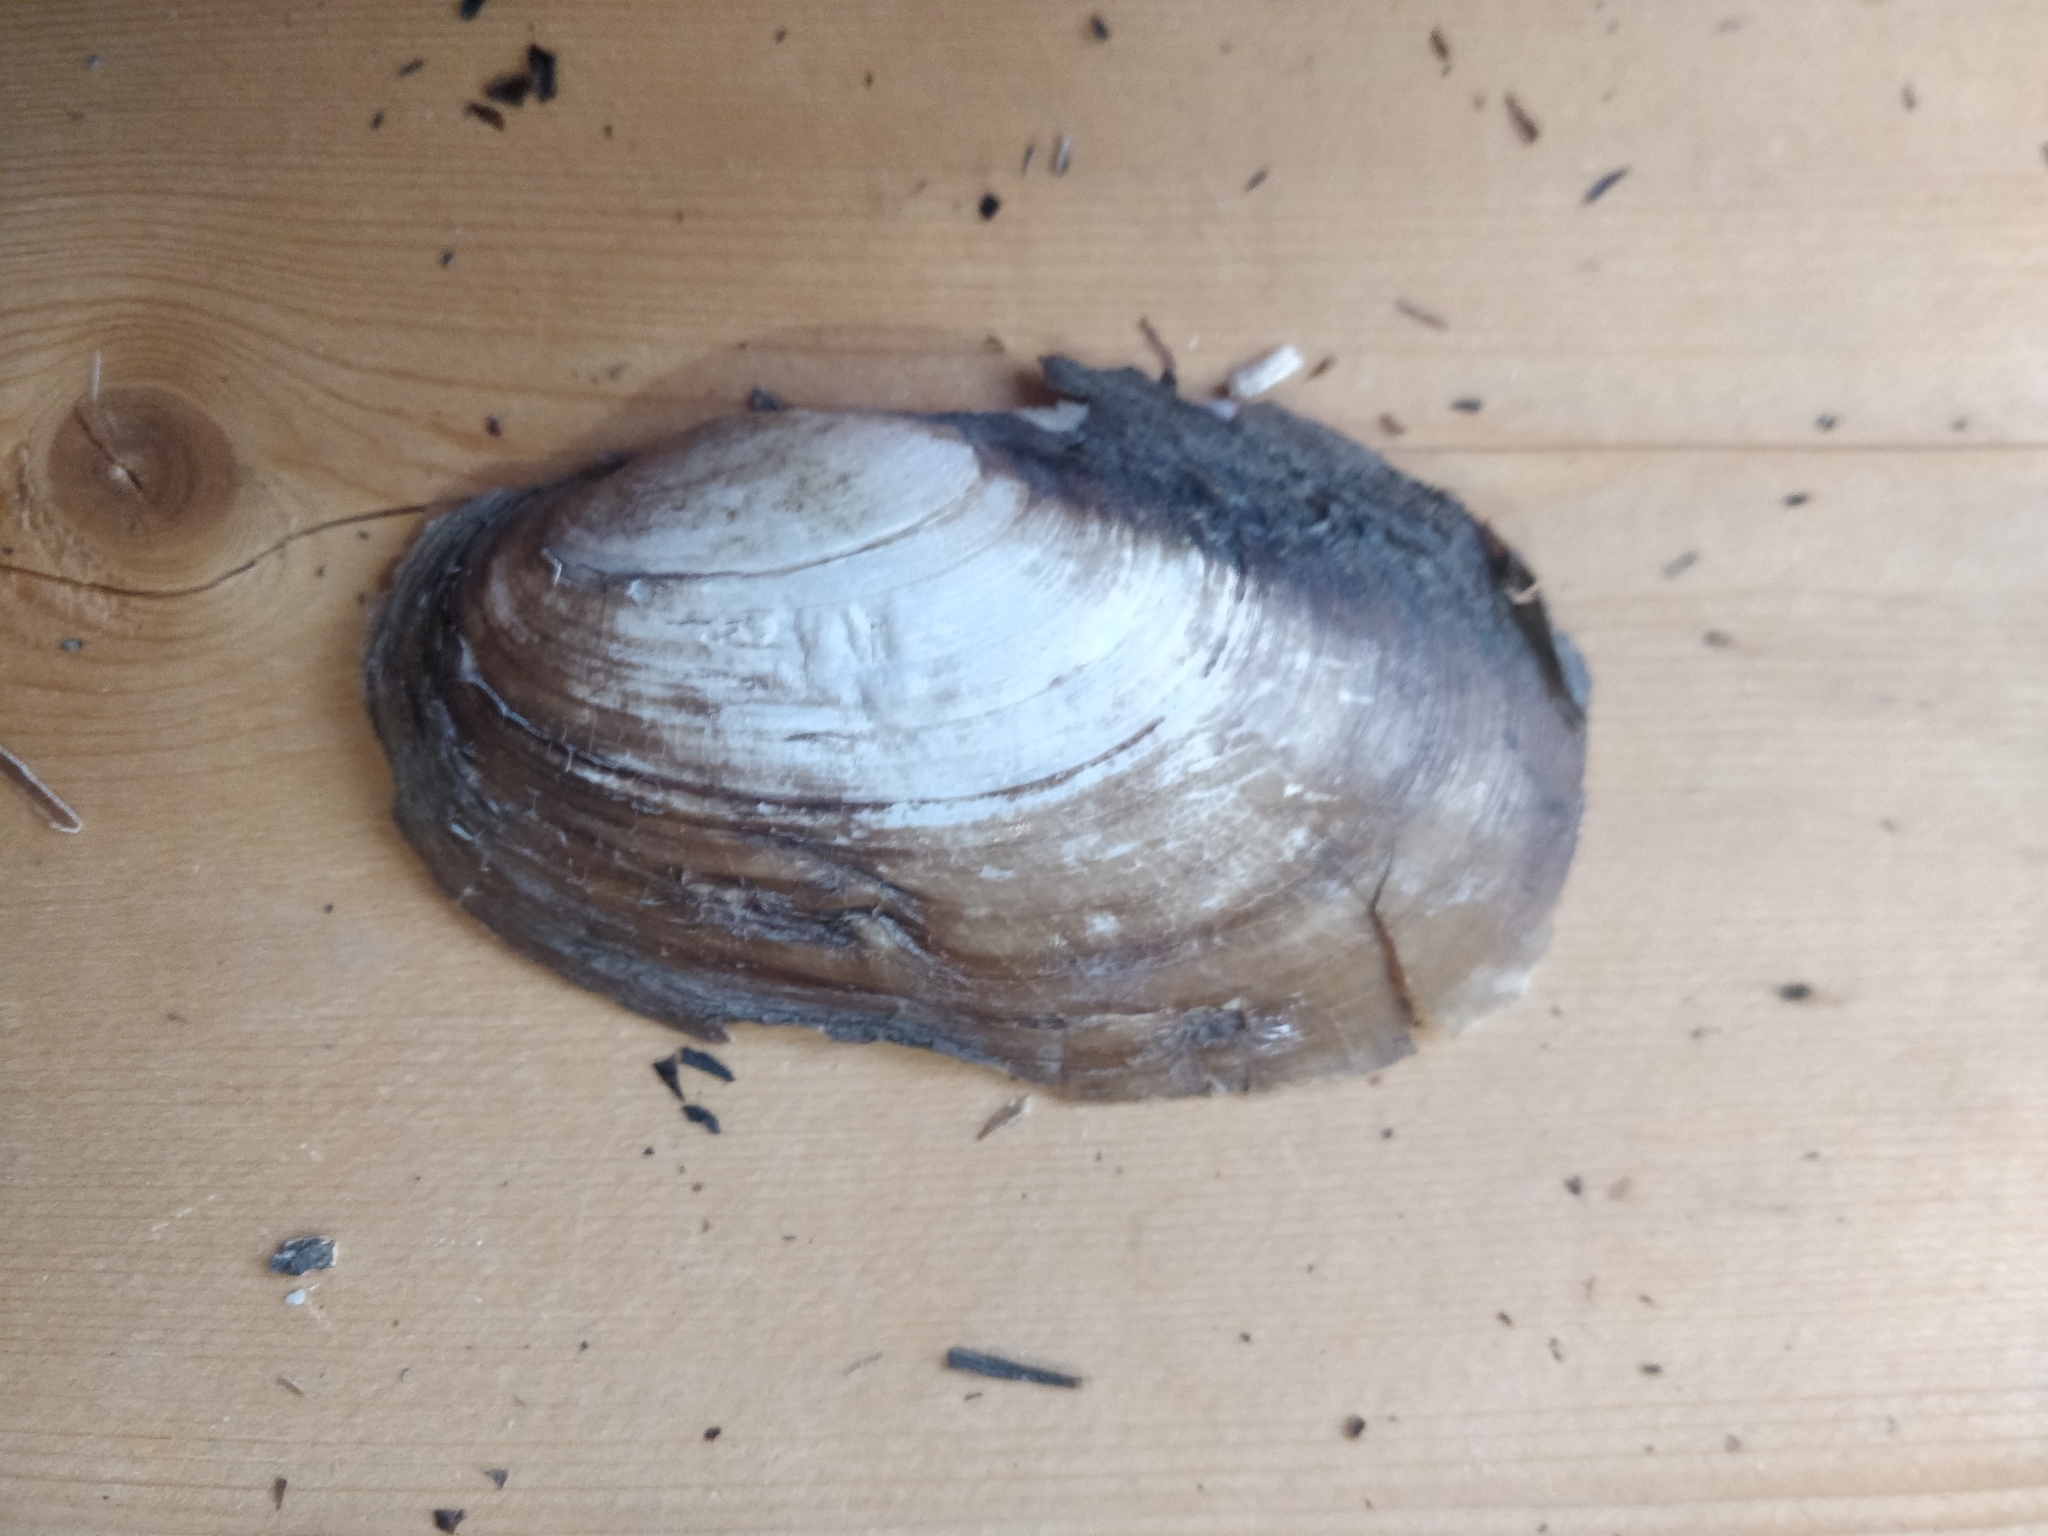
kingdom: Animalia
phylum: Mollusca
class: Bivalvia
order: Unionida
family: Unionidae
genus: Potamilus
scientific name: Potamilus fragilis
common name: Fragile papershell
